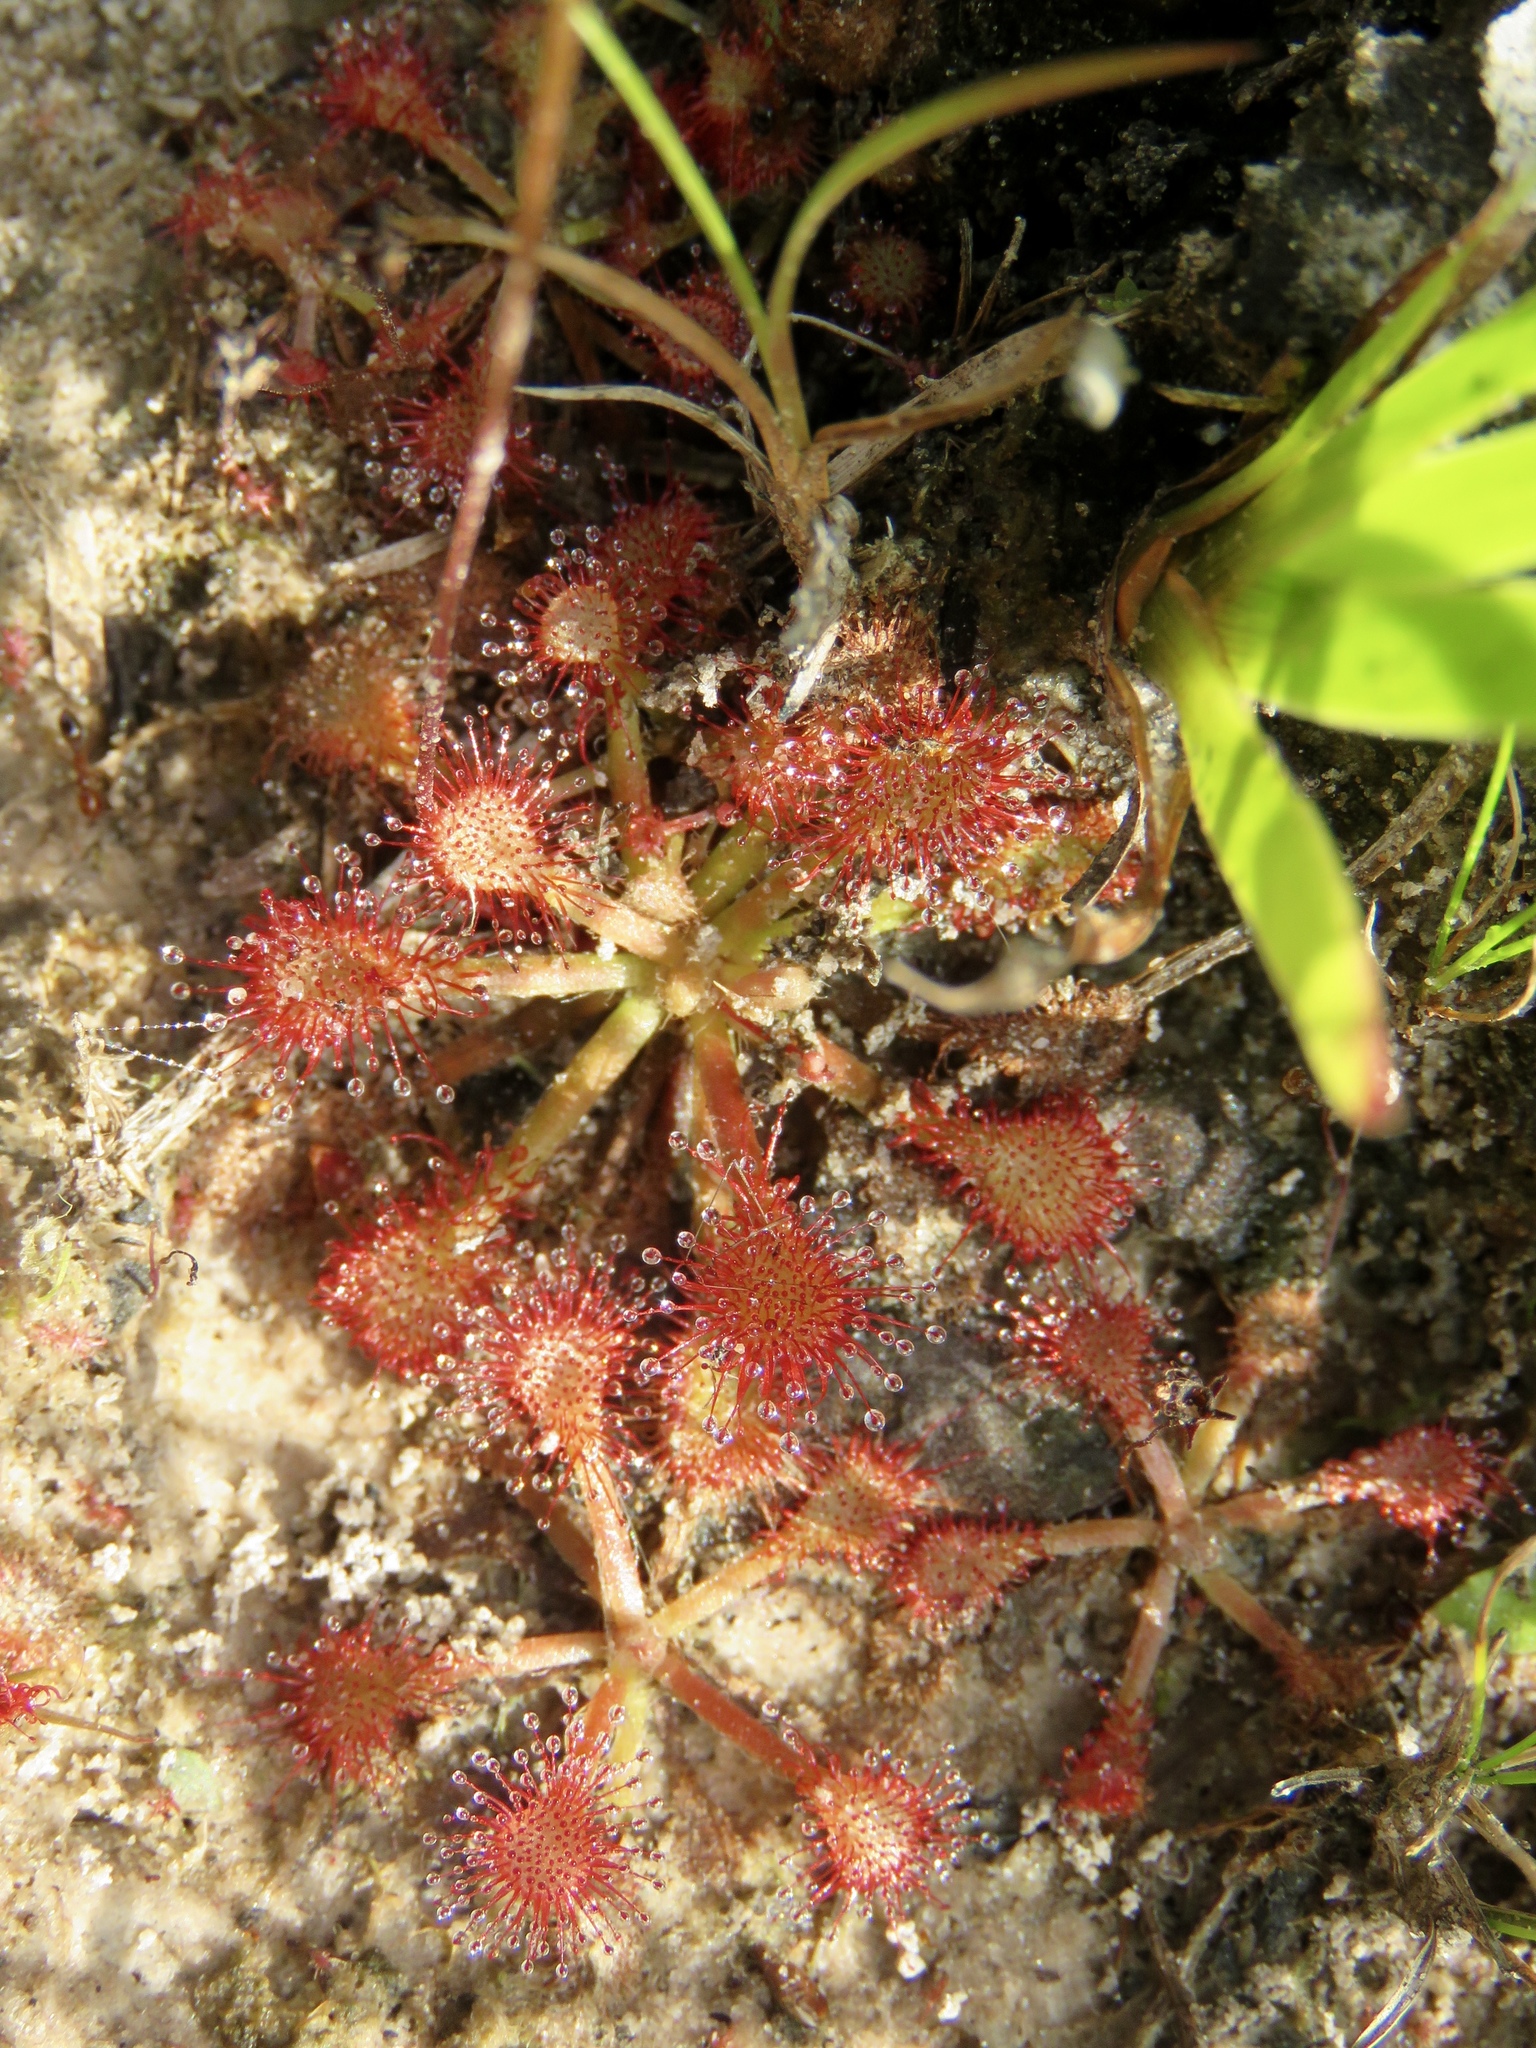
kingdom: Plantae
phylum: Tracheophyta
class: Magnoliopsida
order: Caryophyllales
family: Droseraceae
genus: Drosera
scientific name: Drosera capillaris
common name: Pink sundew
